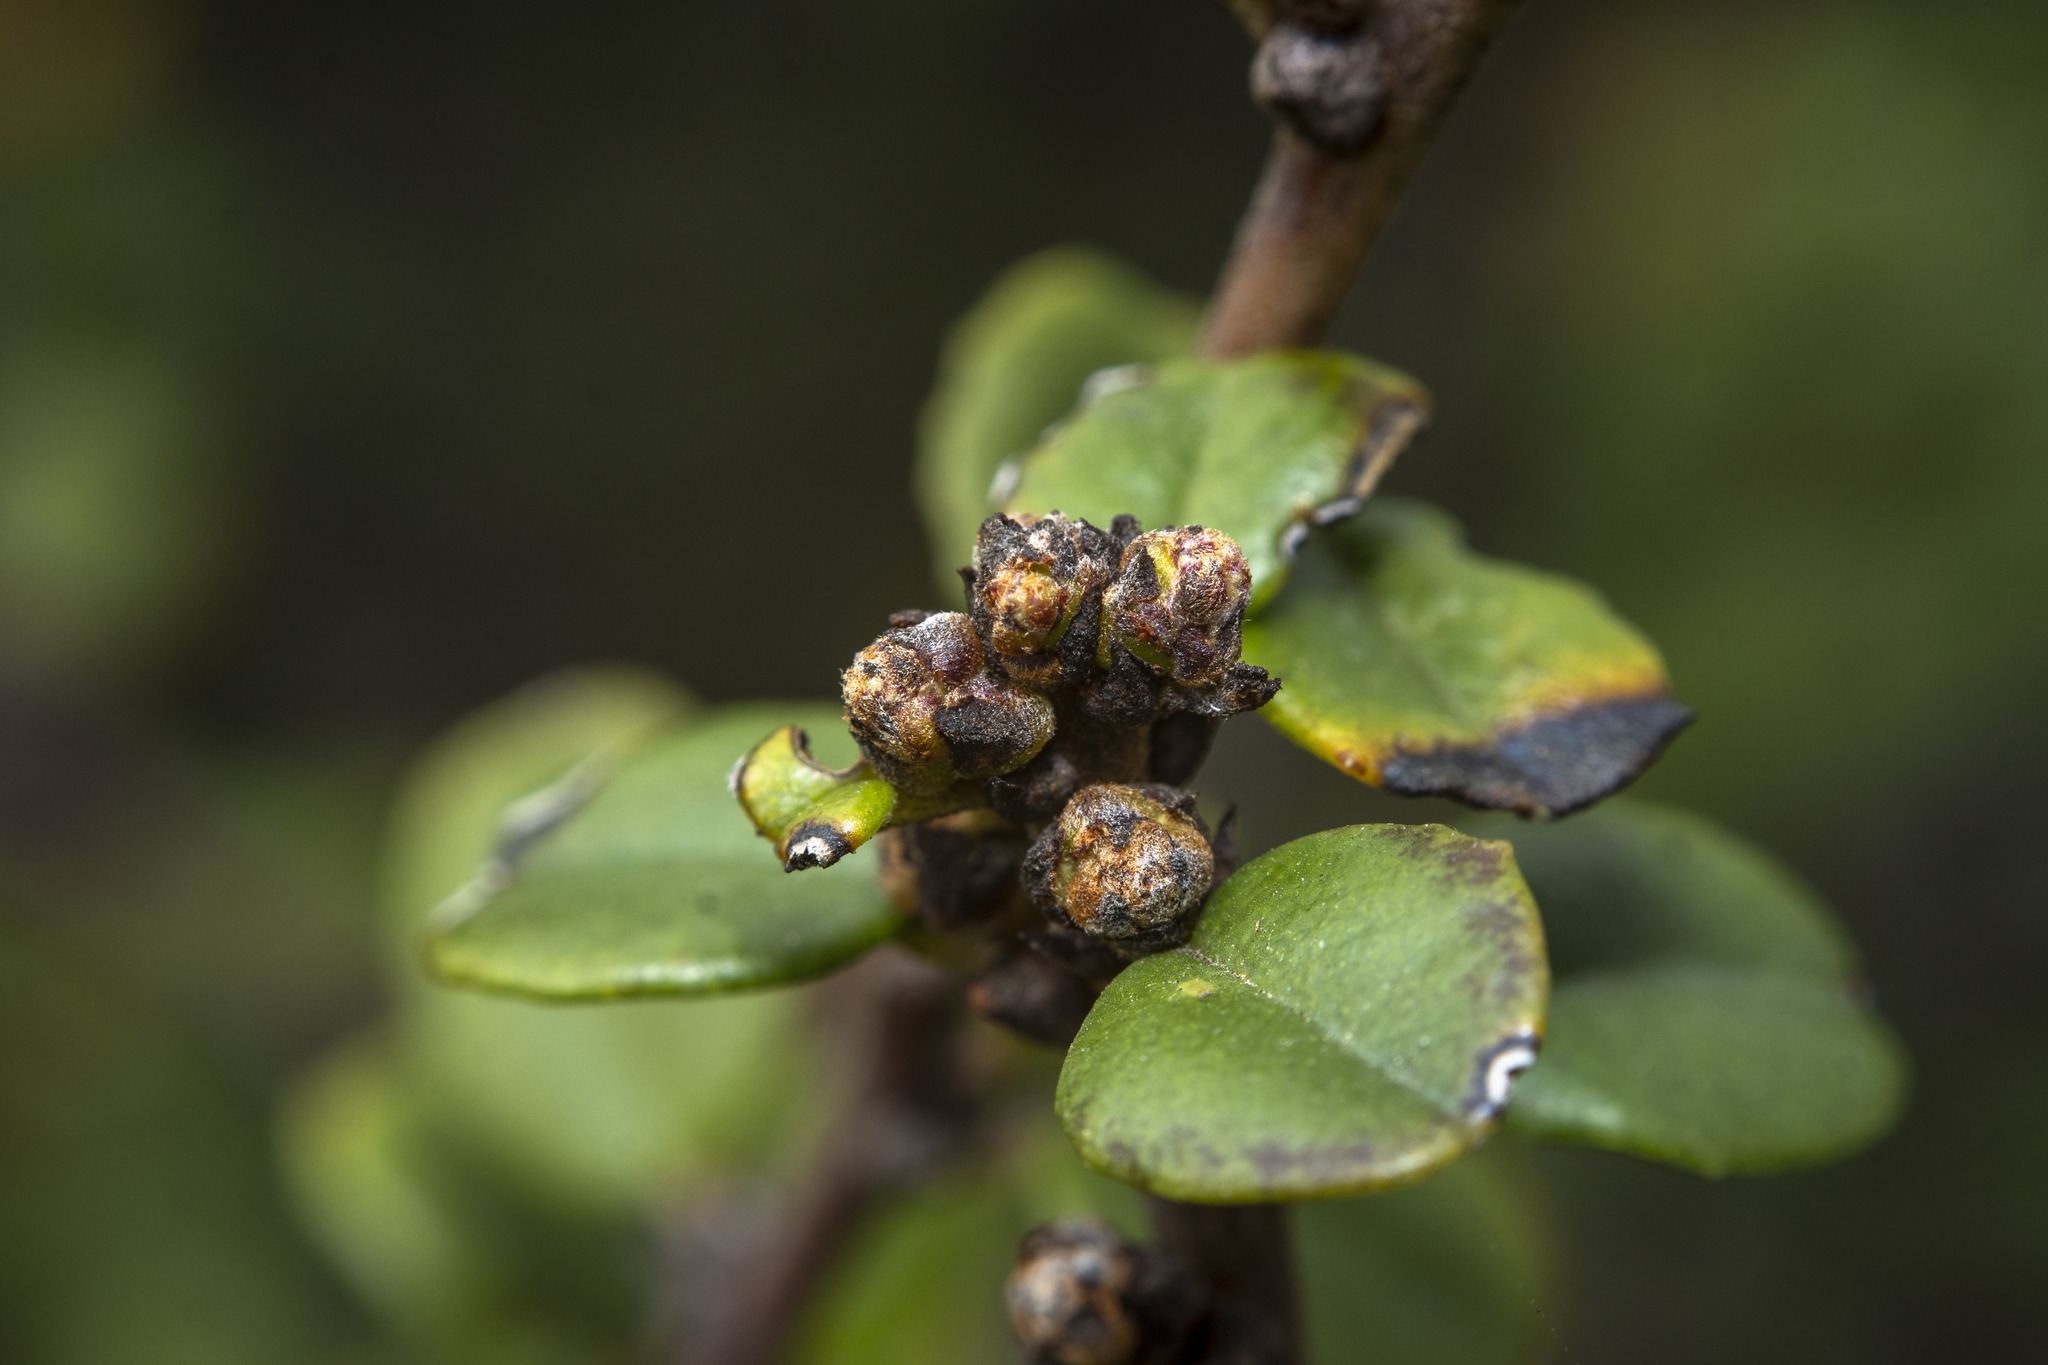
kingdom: Plantae
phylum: Tracheophyta
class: Magnoliopsida
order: Rosales
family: Rhamnaceae
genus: Ceanothus
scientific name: Ceanothus verrucosus
